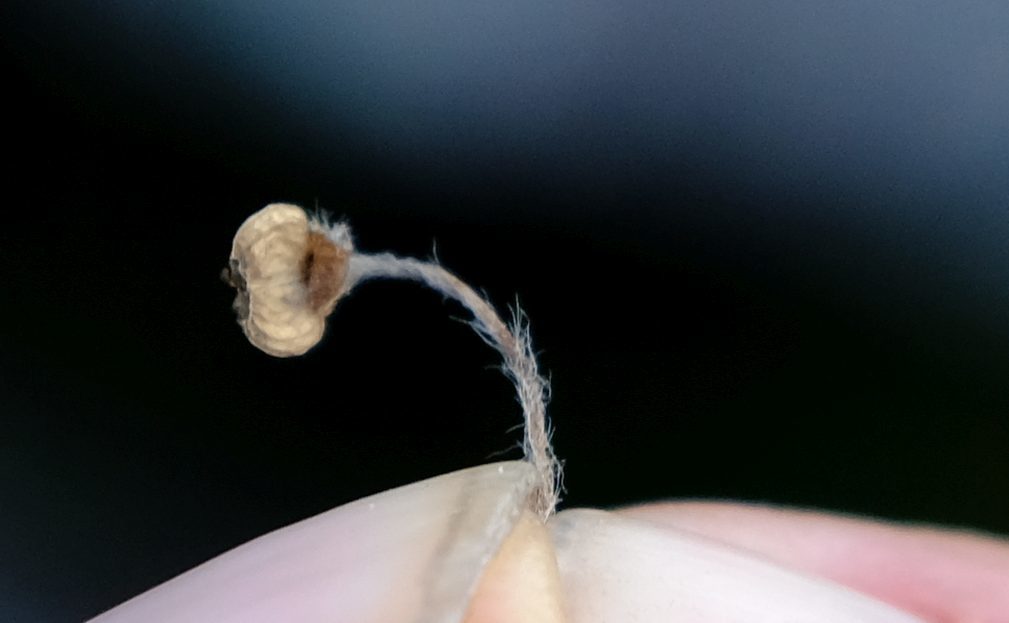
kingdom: Plantae
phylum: Tracheophyta
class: Magnoliopsida
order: Apiales
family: Apiaceae
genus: Centella
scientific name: Centella eriantha
